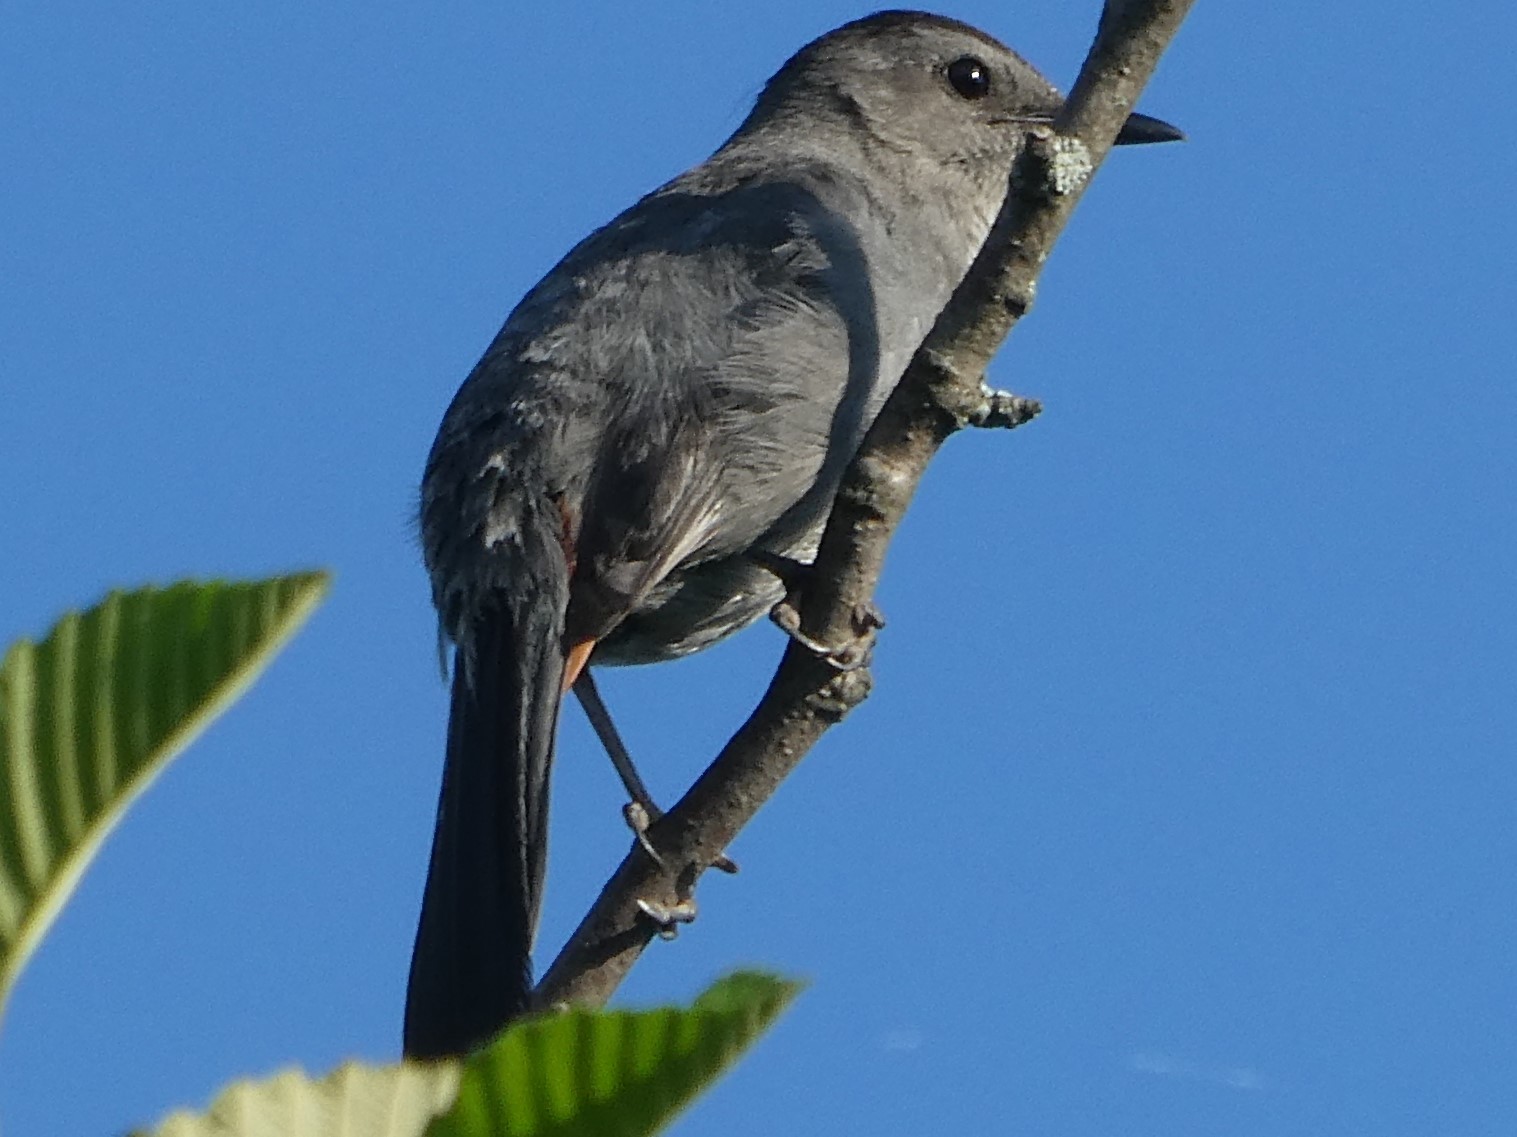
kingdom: Animalia
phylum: Chordata
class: Aves
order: Passeriformes
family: Mimidae
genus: Dumetella
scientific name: Dumetella carolinensis
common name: Gray catbird
